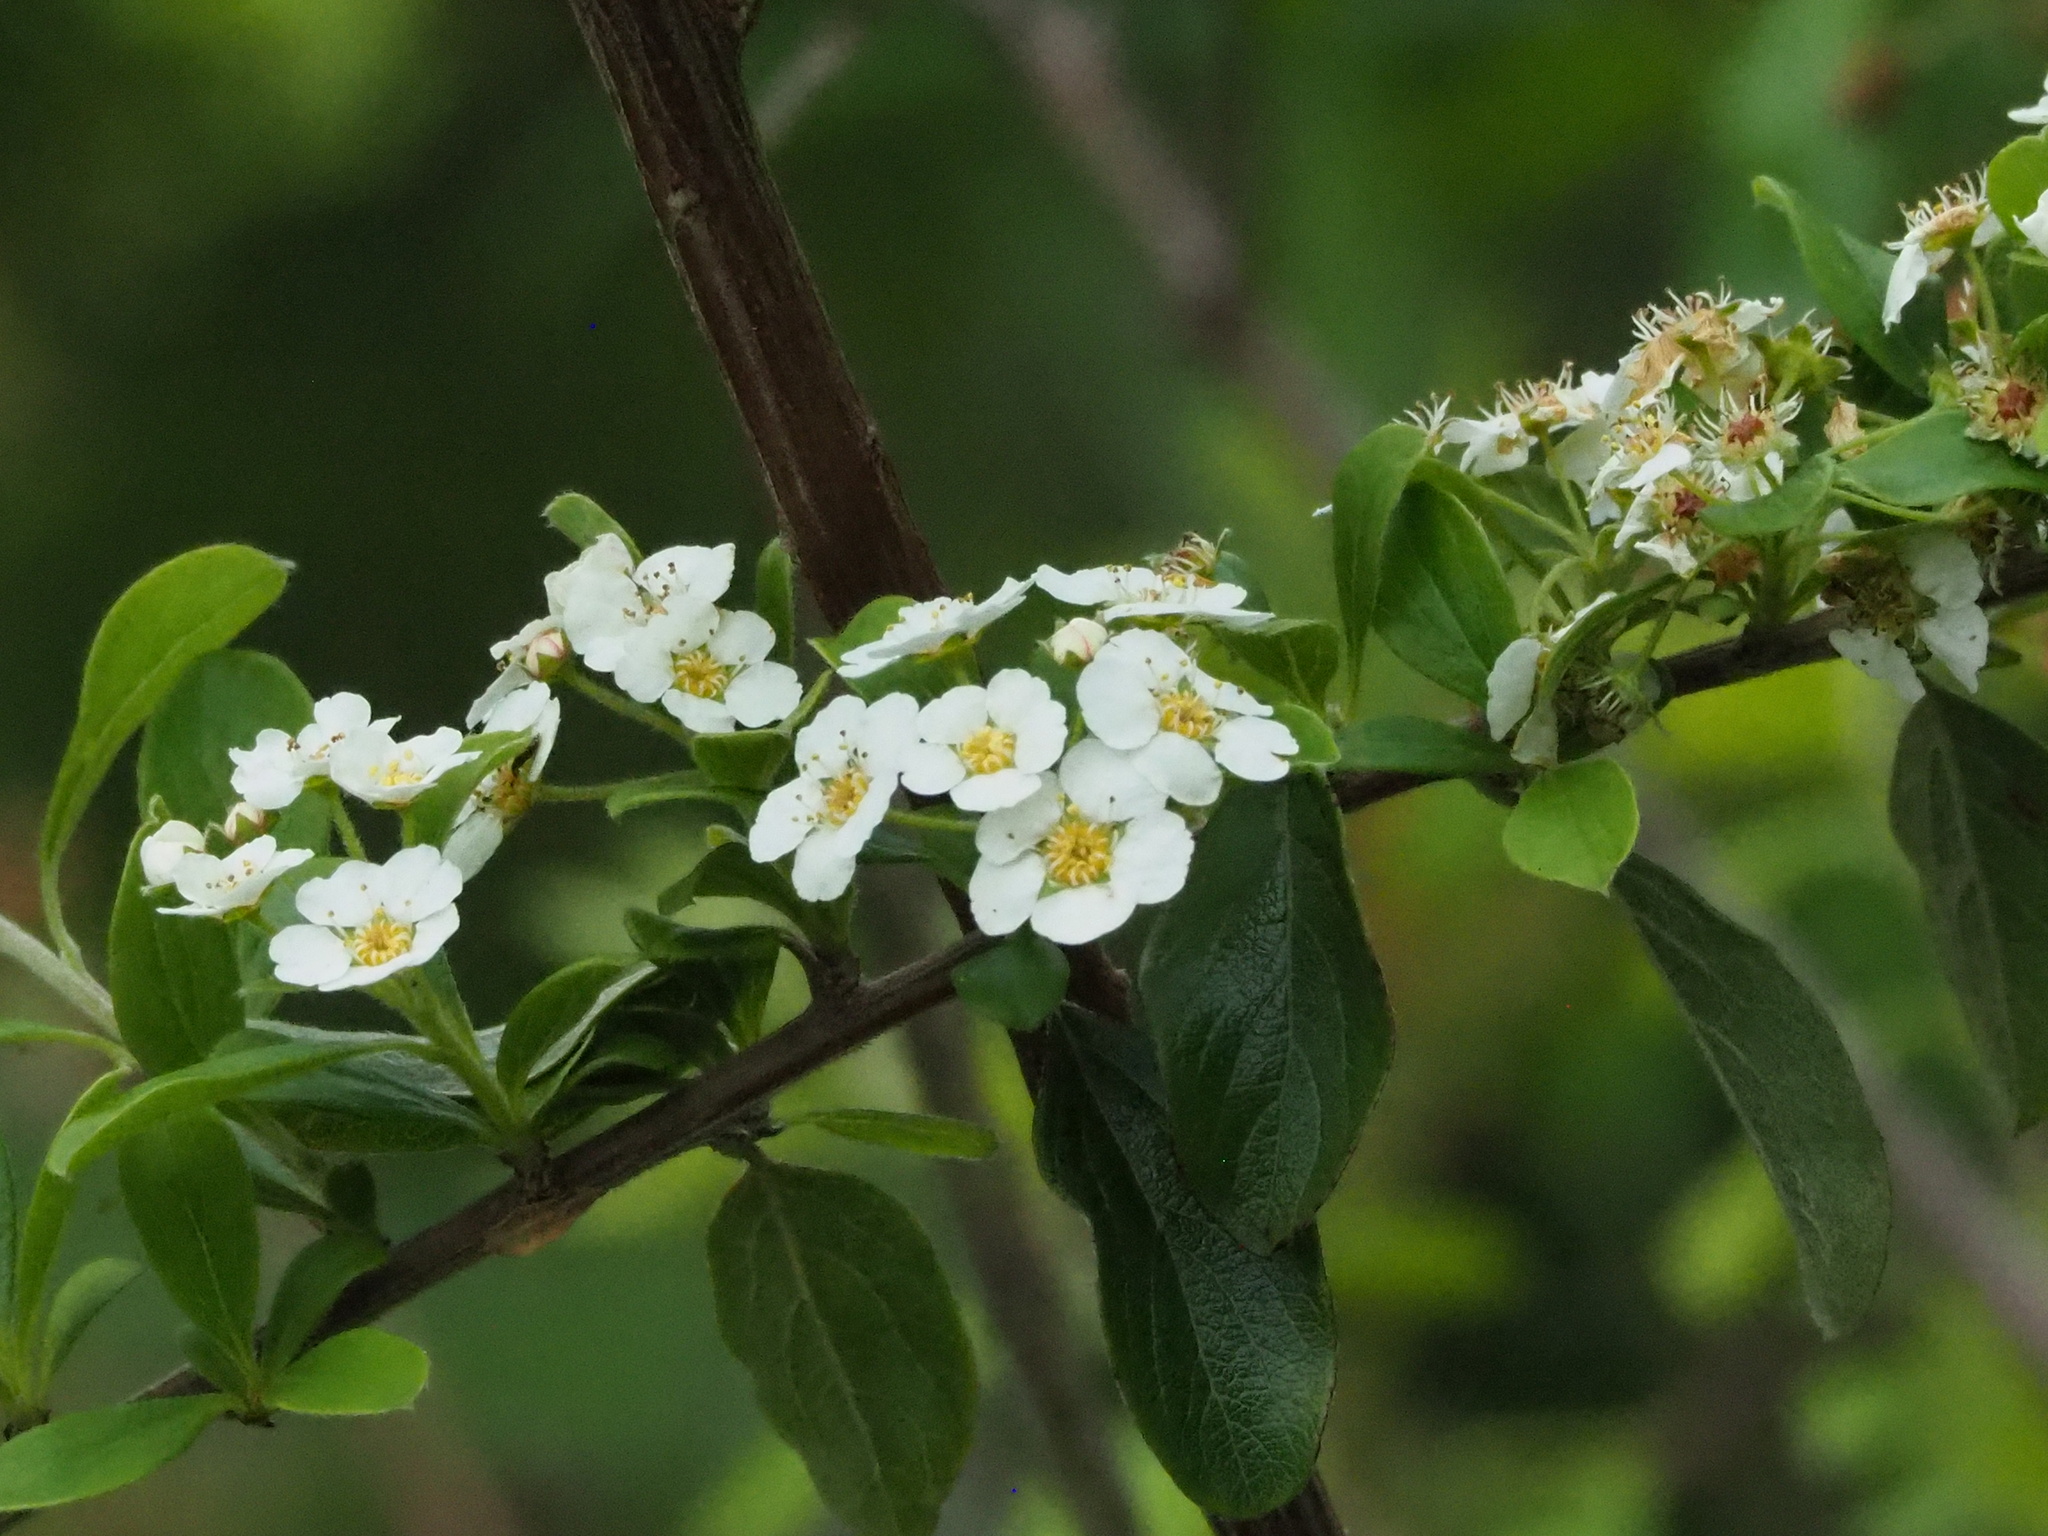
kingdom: Plantae
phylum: Tracheophyta
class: Magnoliopsida
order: Rosales
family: Rosaceae
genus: Spiraea
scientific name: Spiraea prunifolia
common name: Bridal-wreath spiraea
